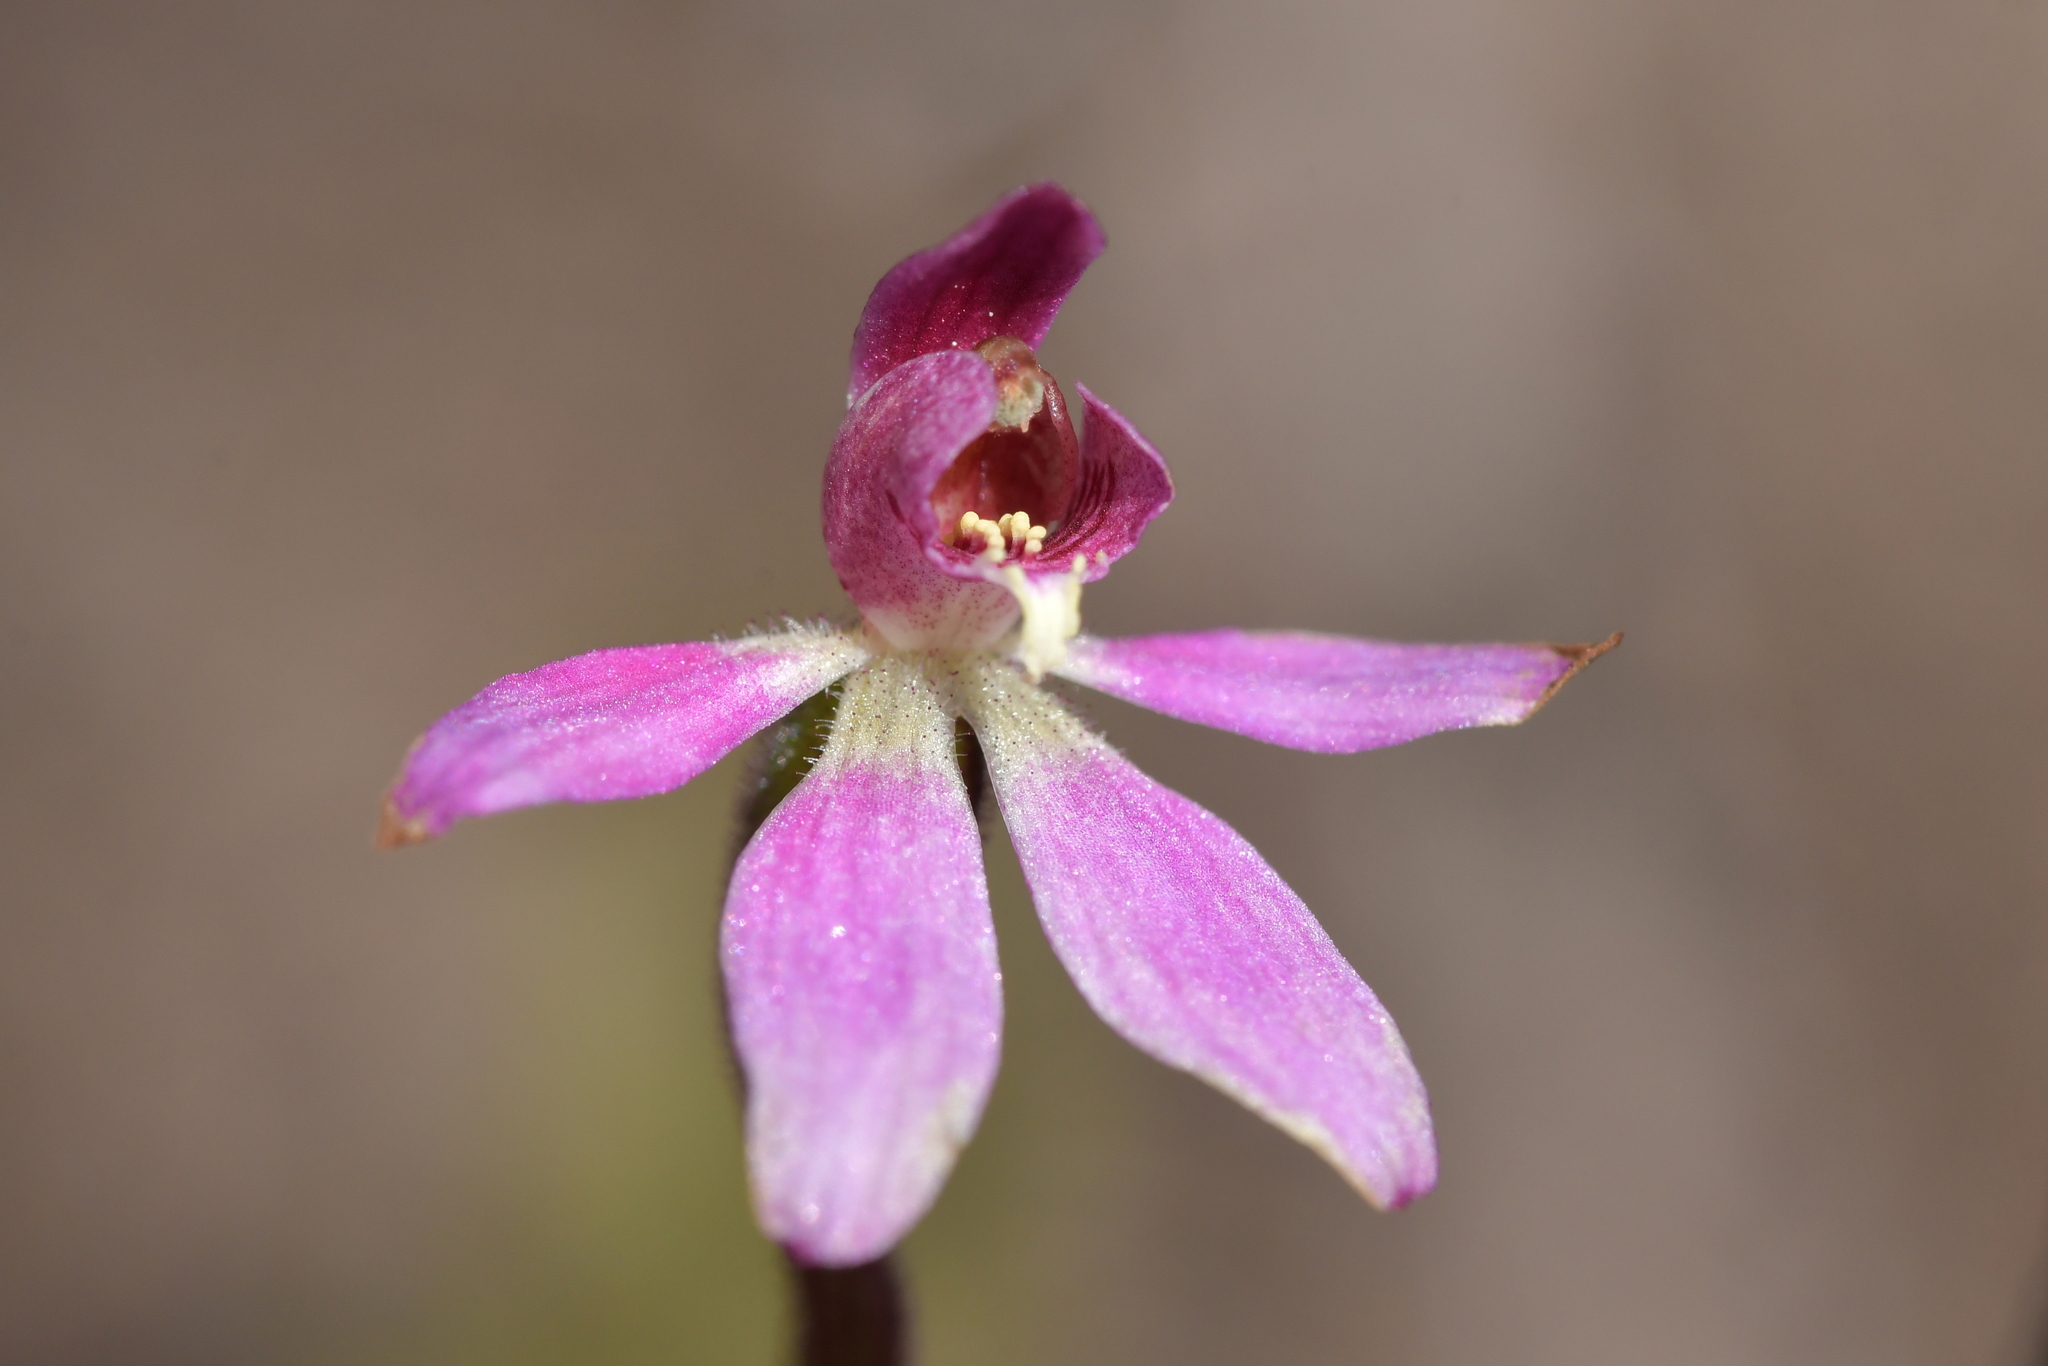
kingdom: Plantae
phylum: Tracheophyta
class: Liliopsida
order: Asparagales
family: Orchidaceae
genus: Caladenia
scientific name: Caladenia minor
